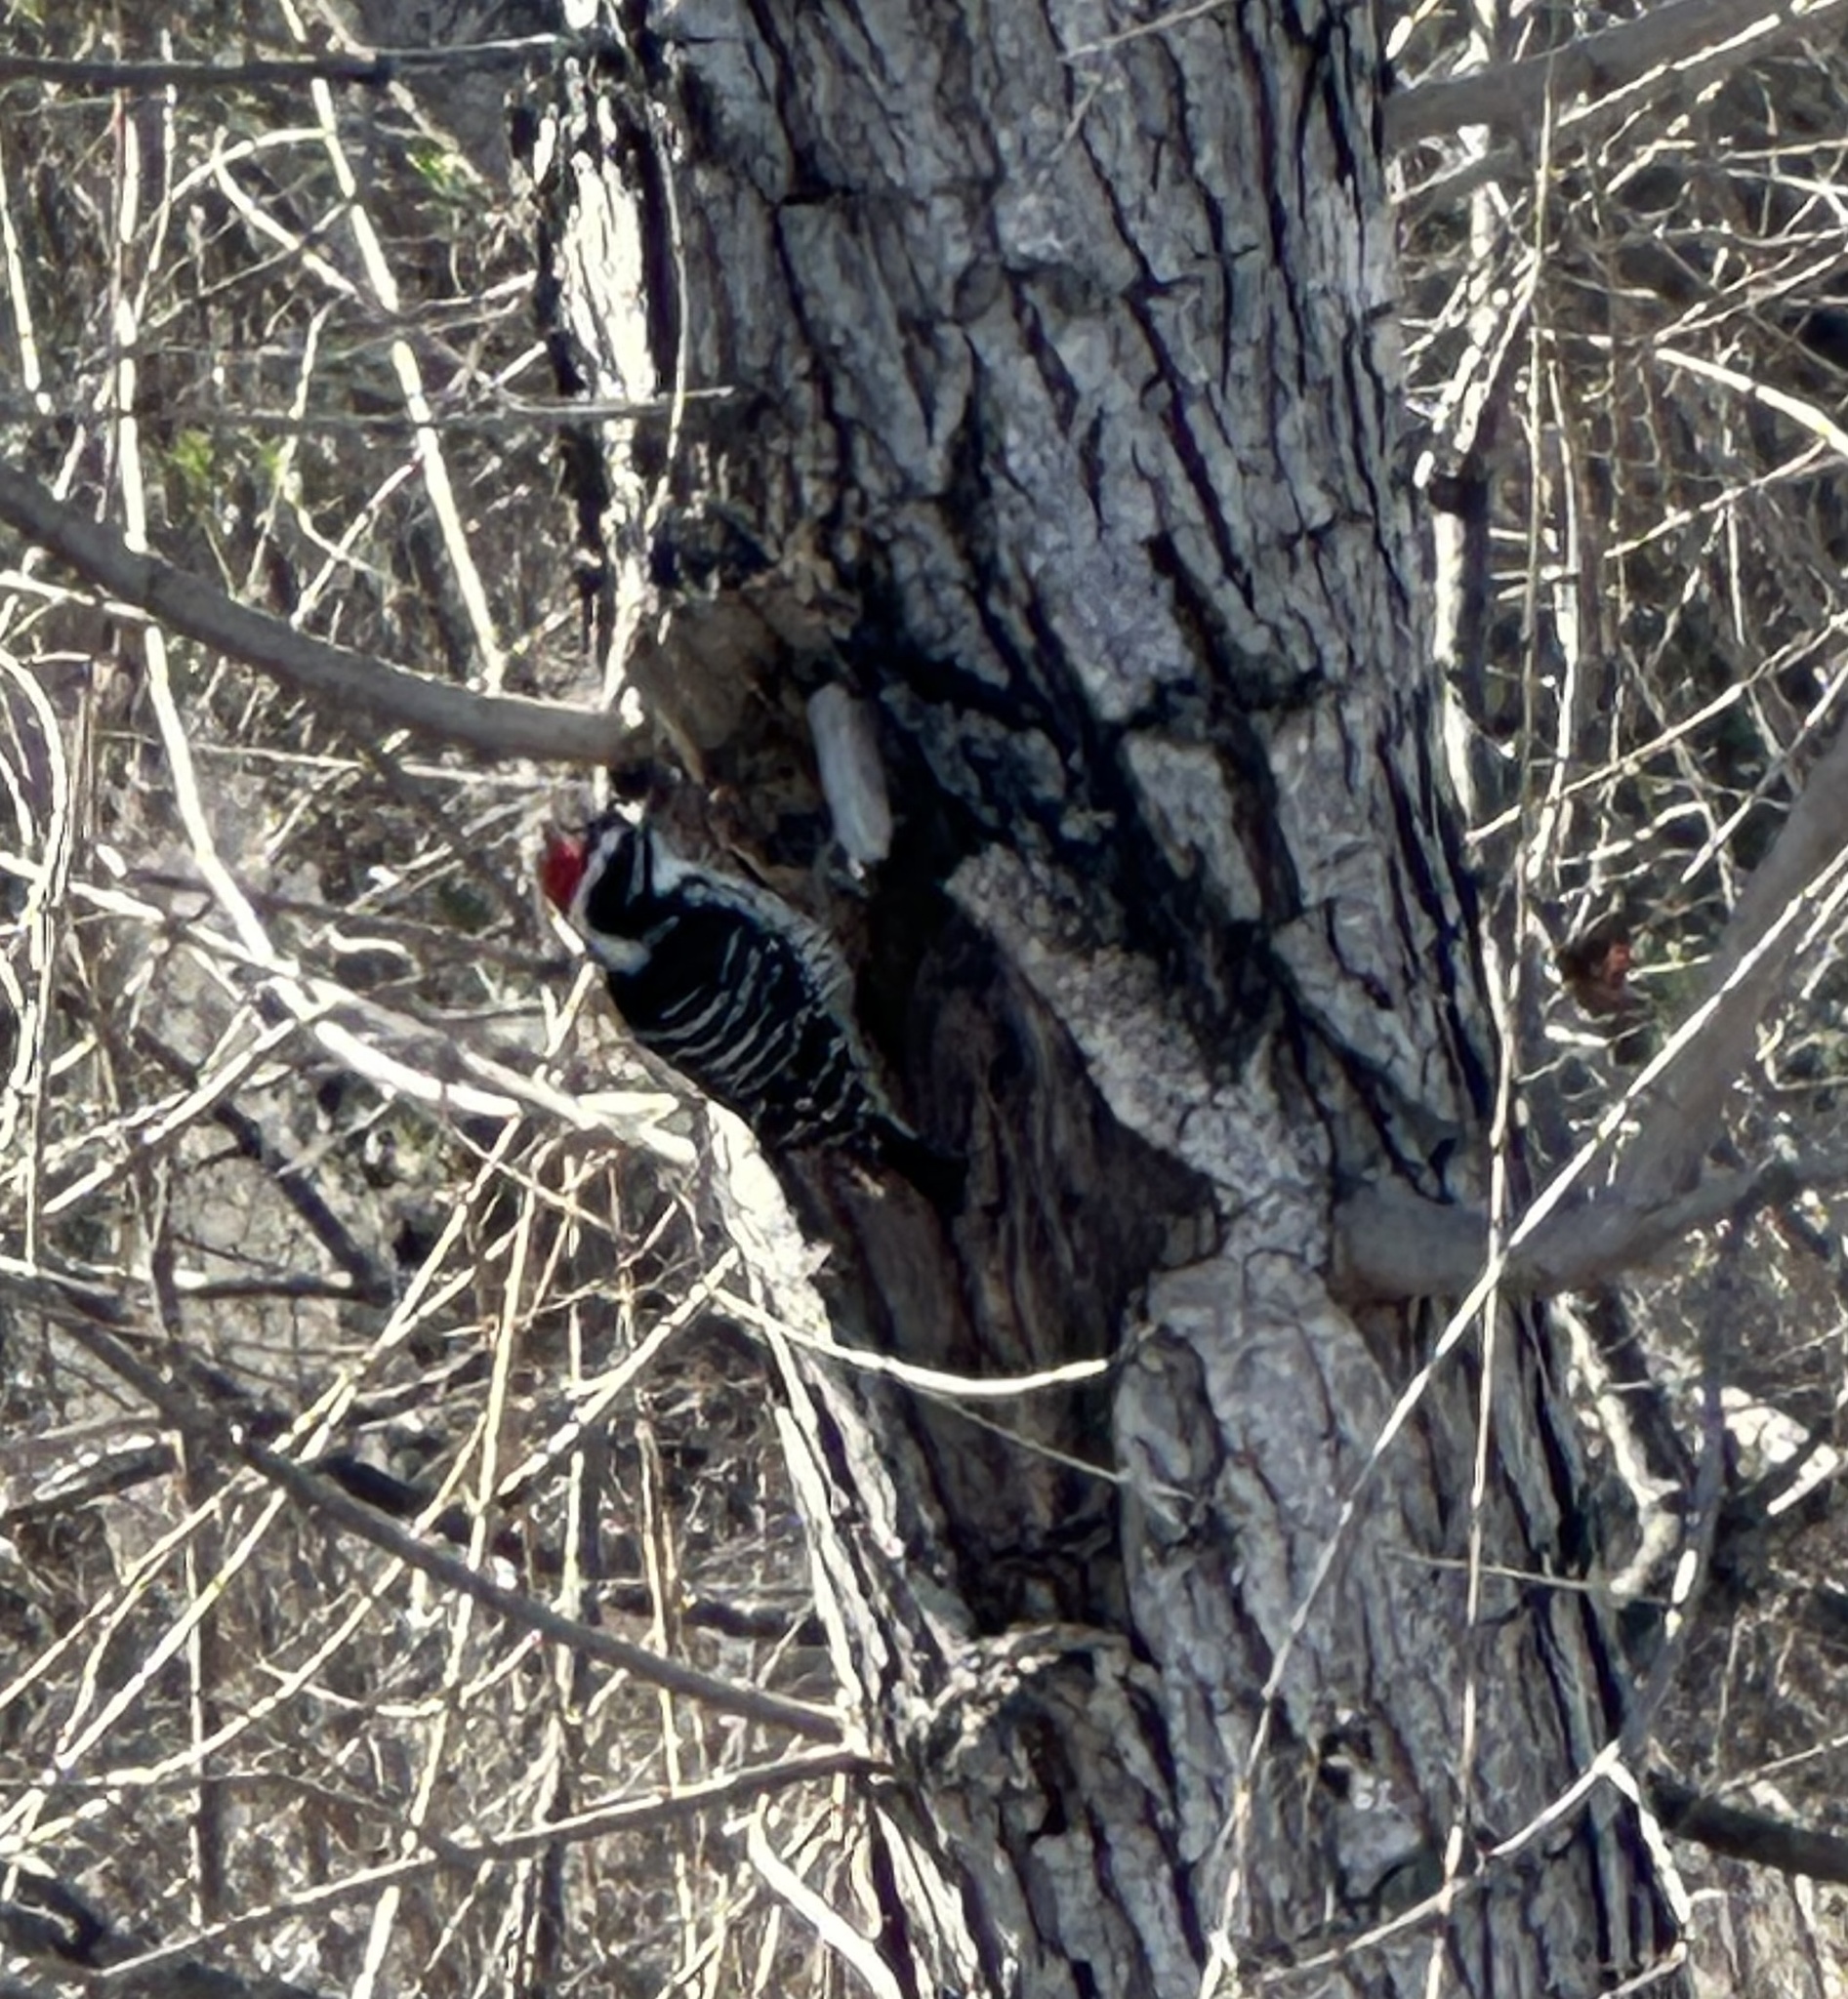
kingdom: Animalia
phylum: Chordata
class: Aves
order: Piciformes
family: Picidae
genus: Dryobates
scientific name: Dryobates nuttallii
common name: Nuttall's woodpecker
